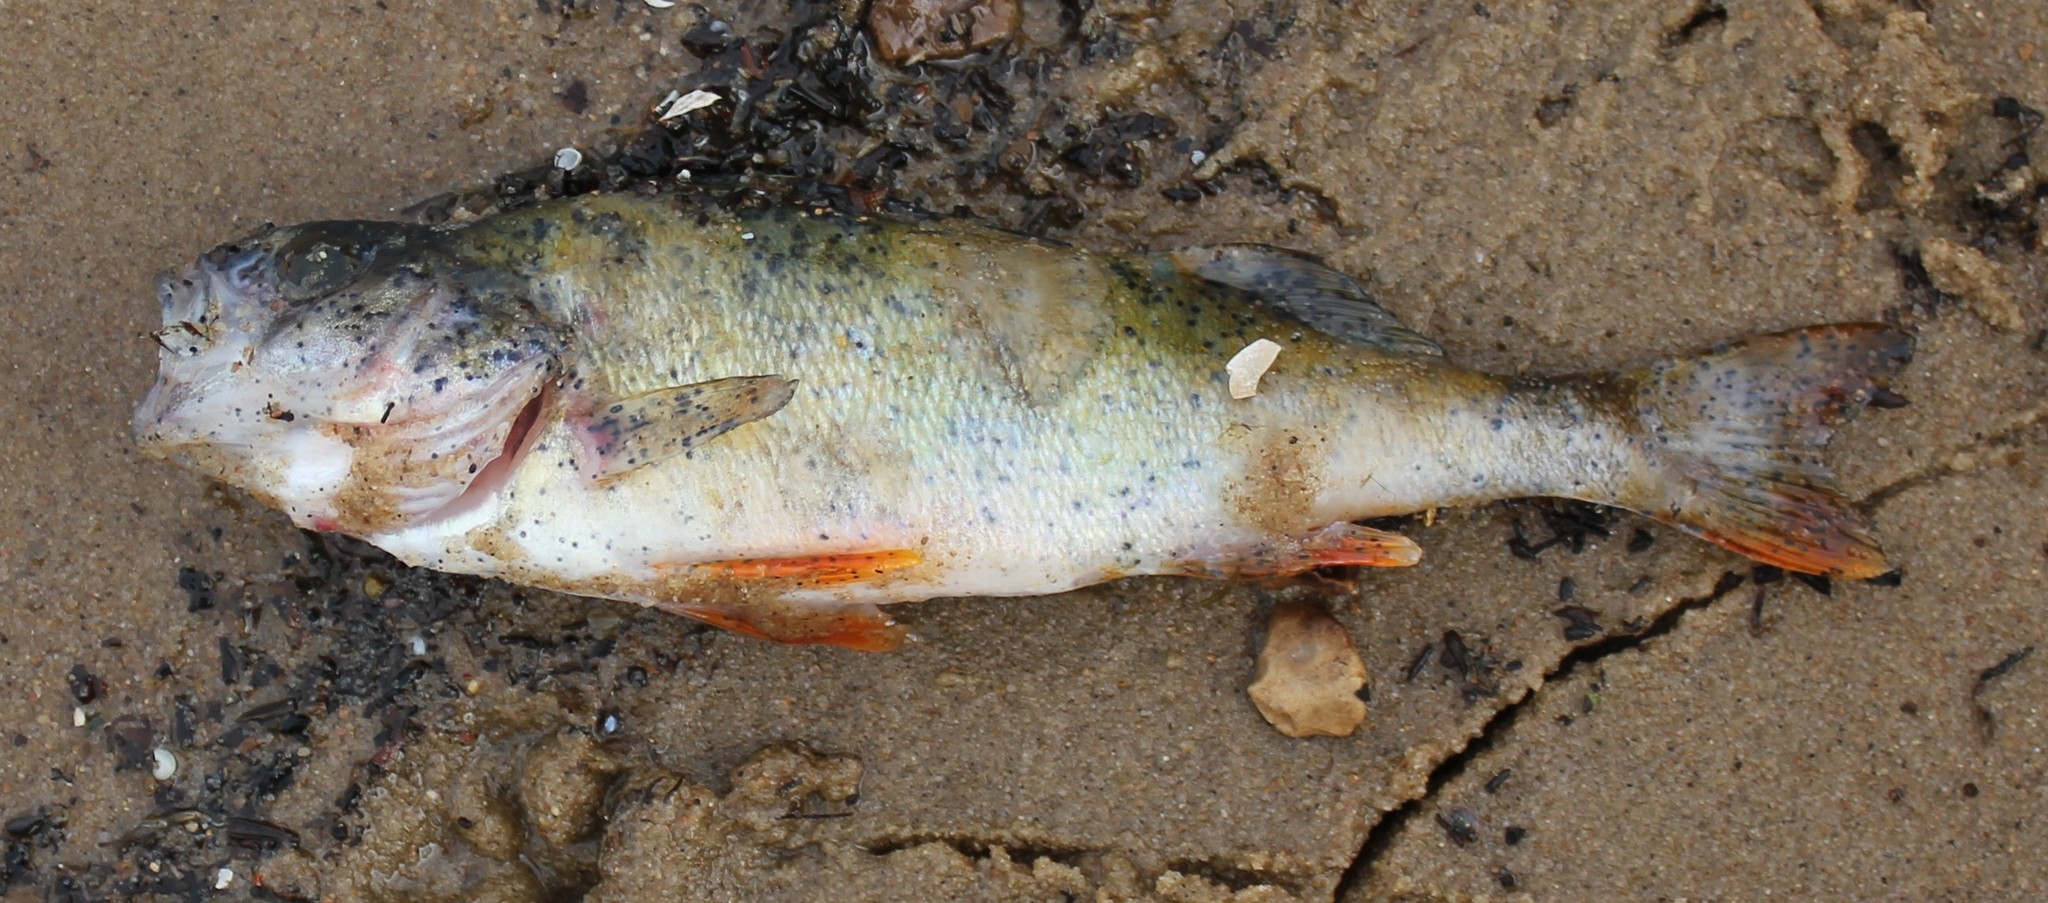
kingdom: Animalia
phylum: Chordata
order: Perciformes
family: Percidae
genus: Perca
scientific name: Perca fluviatilis
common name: Perch
